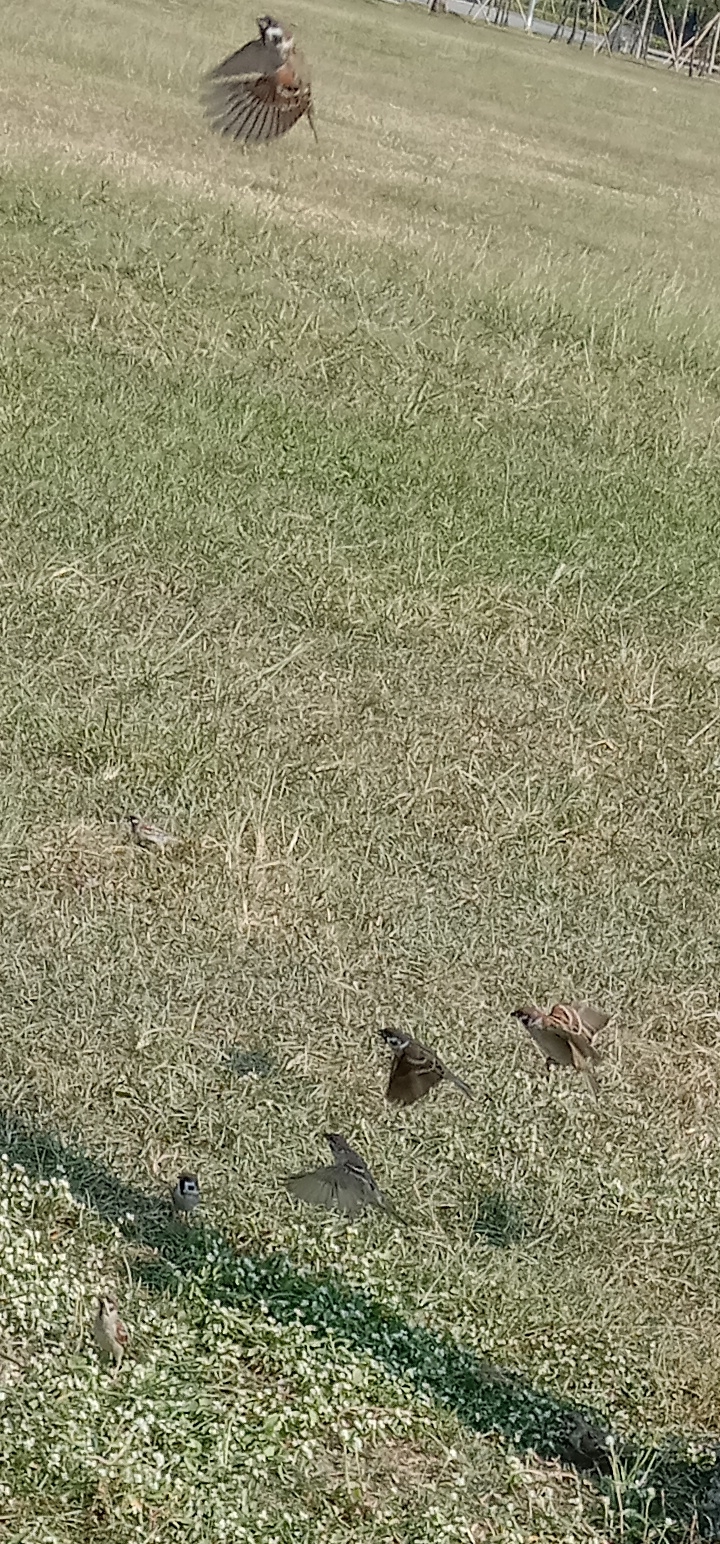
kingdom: Animalia
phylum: Chordata
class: Aves
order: Passeriformes
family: Passeridae
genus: Passer
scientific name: Passer montanus
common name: Eurasian tree sparrow
